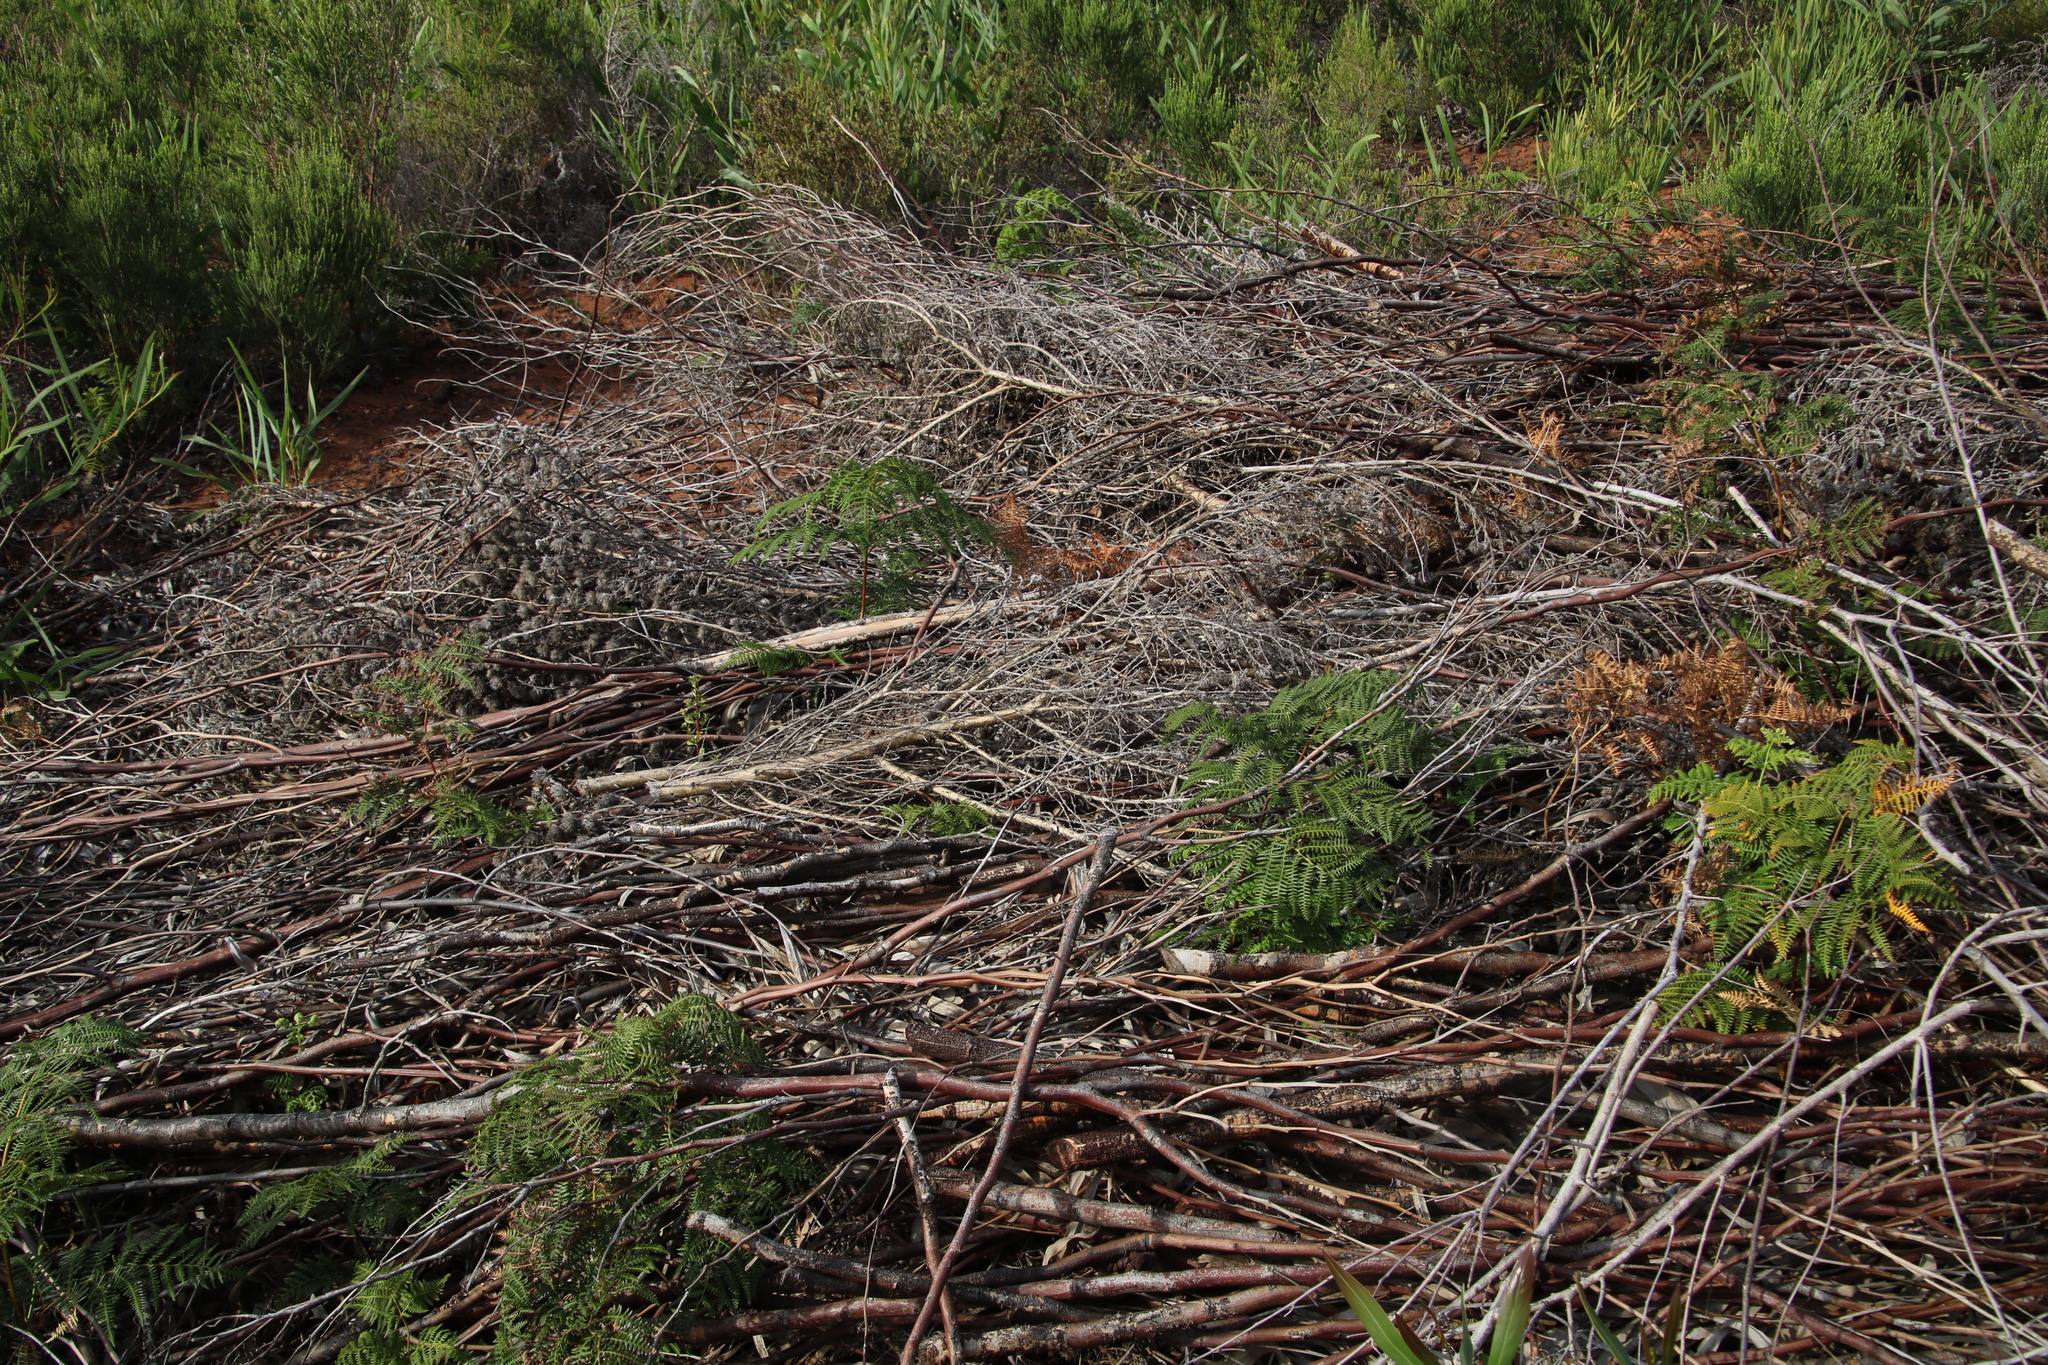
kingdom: Plantae
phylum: Tracheophyta
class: Magnoliopsida
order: Fabales
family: Fabaceae
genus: Aspalathus
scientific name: Aspalathus chenopoda
